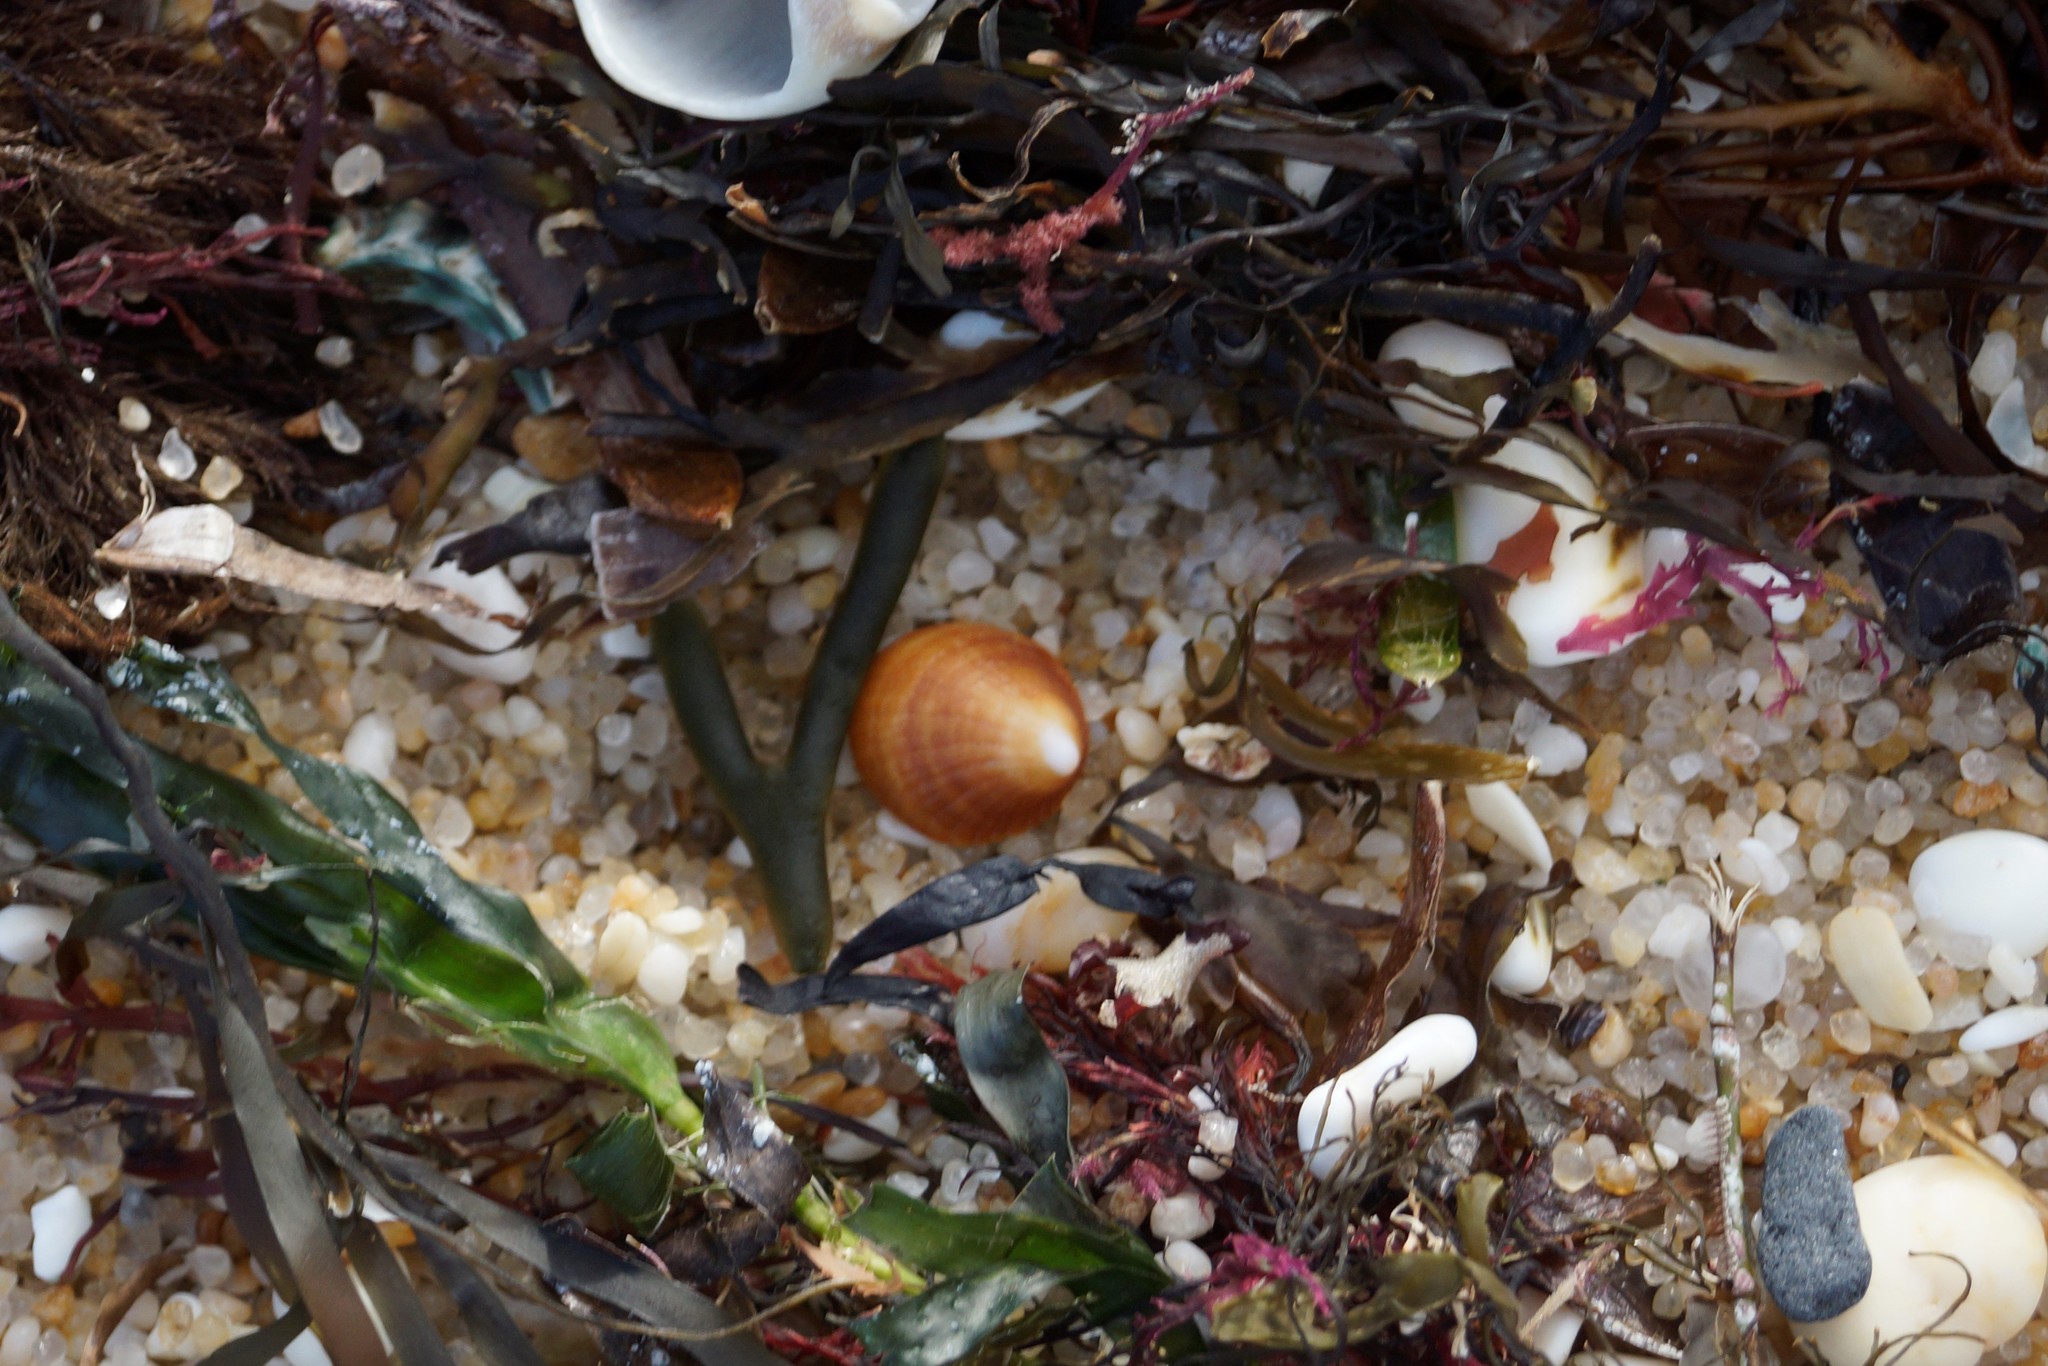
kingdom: Animalia
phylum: Mollusca
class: Gastropoda
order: Littorinimorpha
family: Hipponicidae
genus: Sabia
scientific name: Sabia australis
